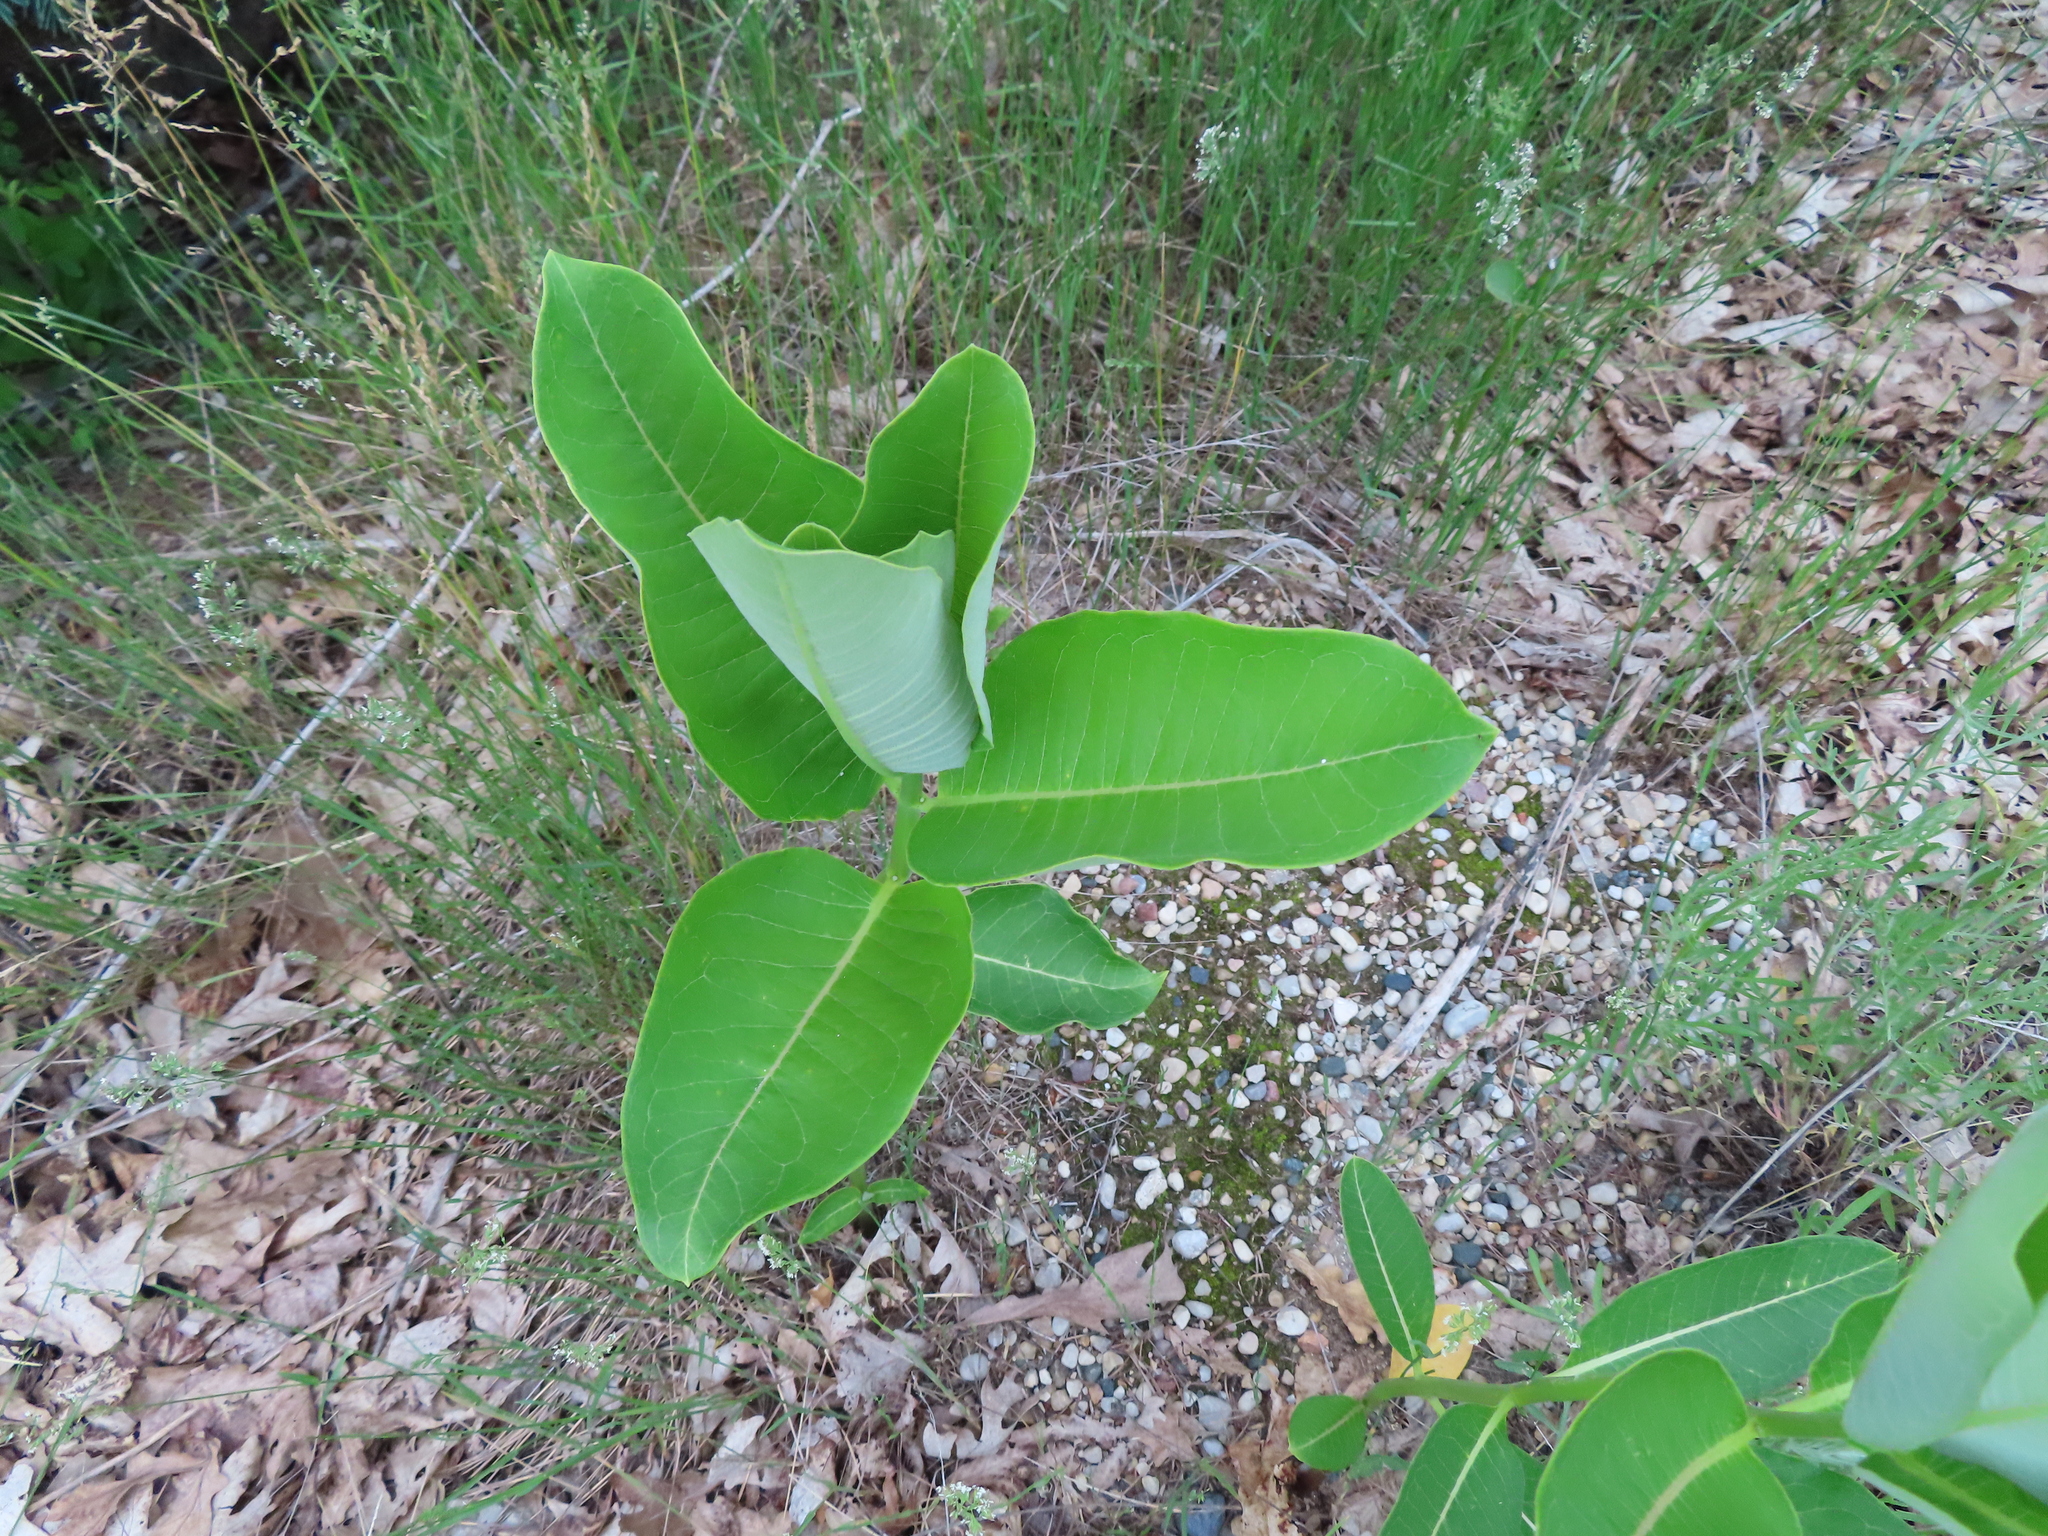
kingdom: Plantae
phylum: Tracheophyta
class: Magnoliopsida
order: Gentianales
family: Apocynaceae
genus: Asclepias
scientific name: Asclepias syriaca
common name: Common milkweed
